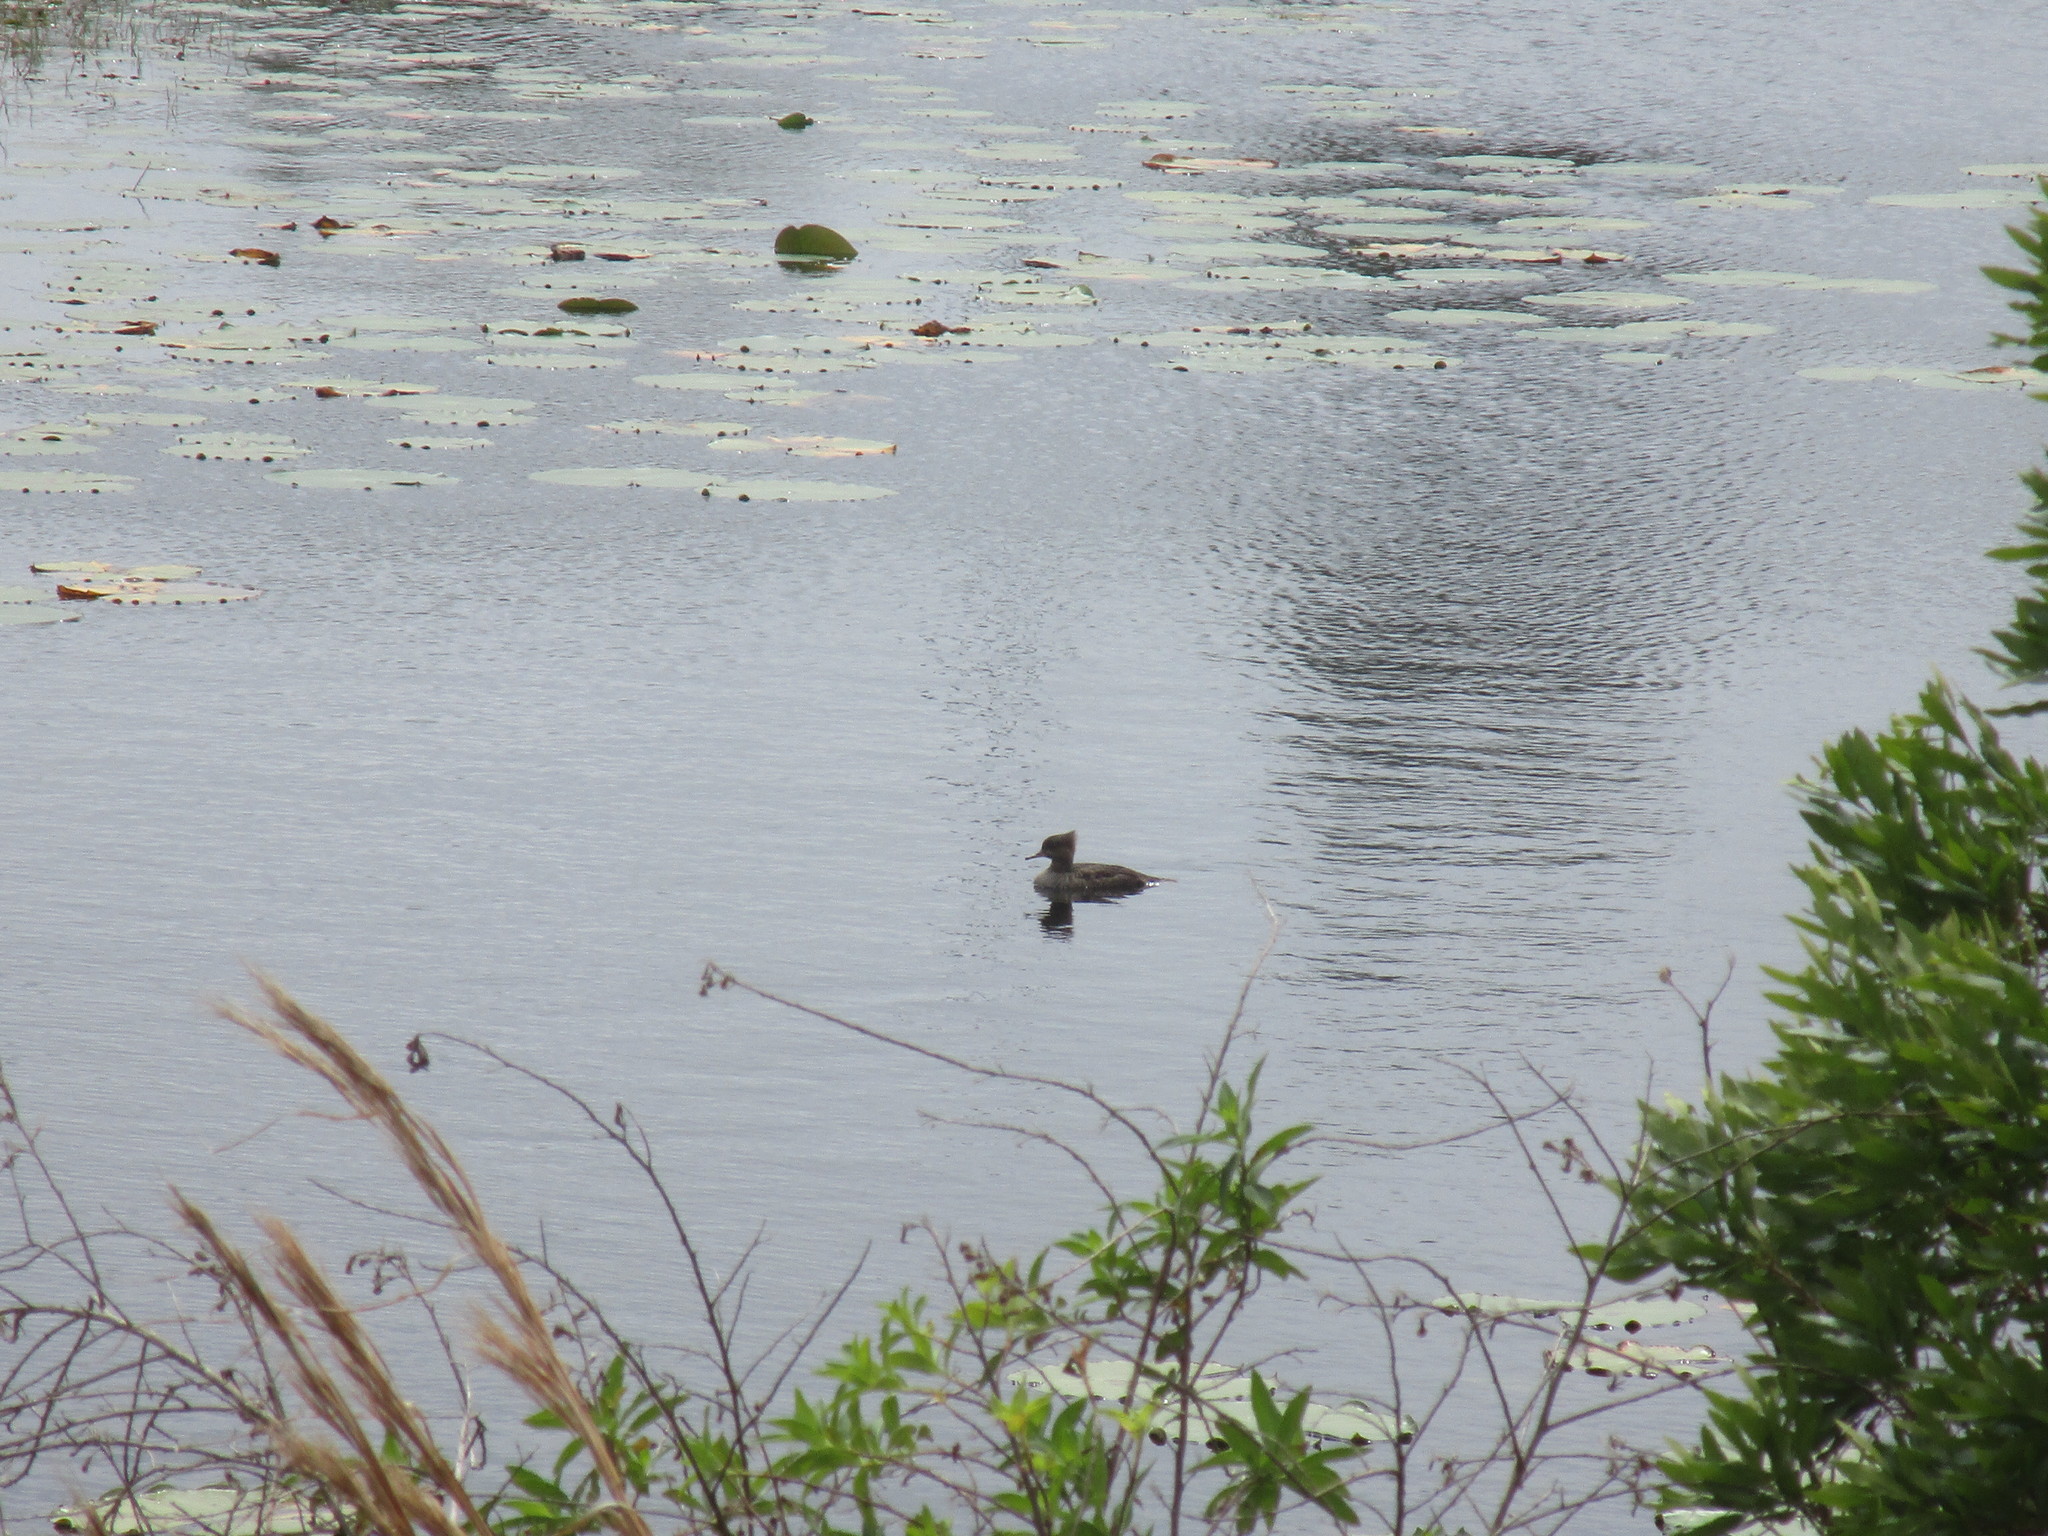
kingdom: Animalia
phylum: Chordata
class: Aves
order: Anseriformes
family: Anatidae
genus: Lophodytes
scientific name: Lophodytes cucullatus
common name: Hooded merganser
